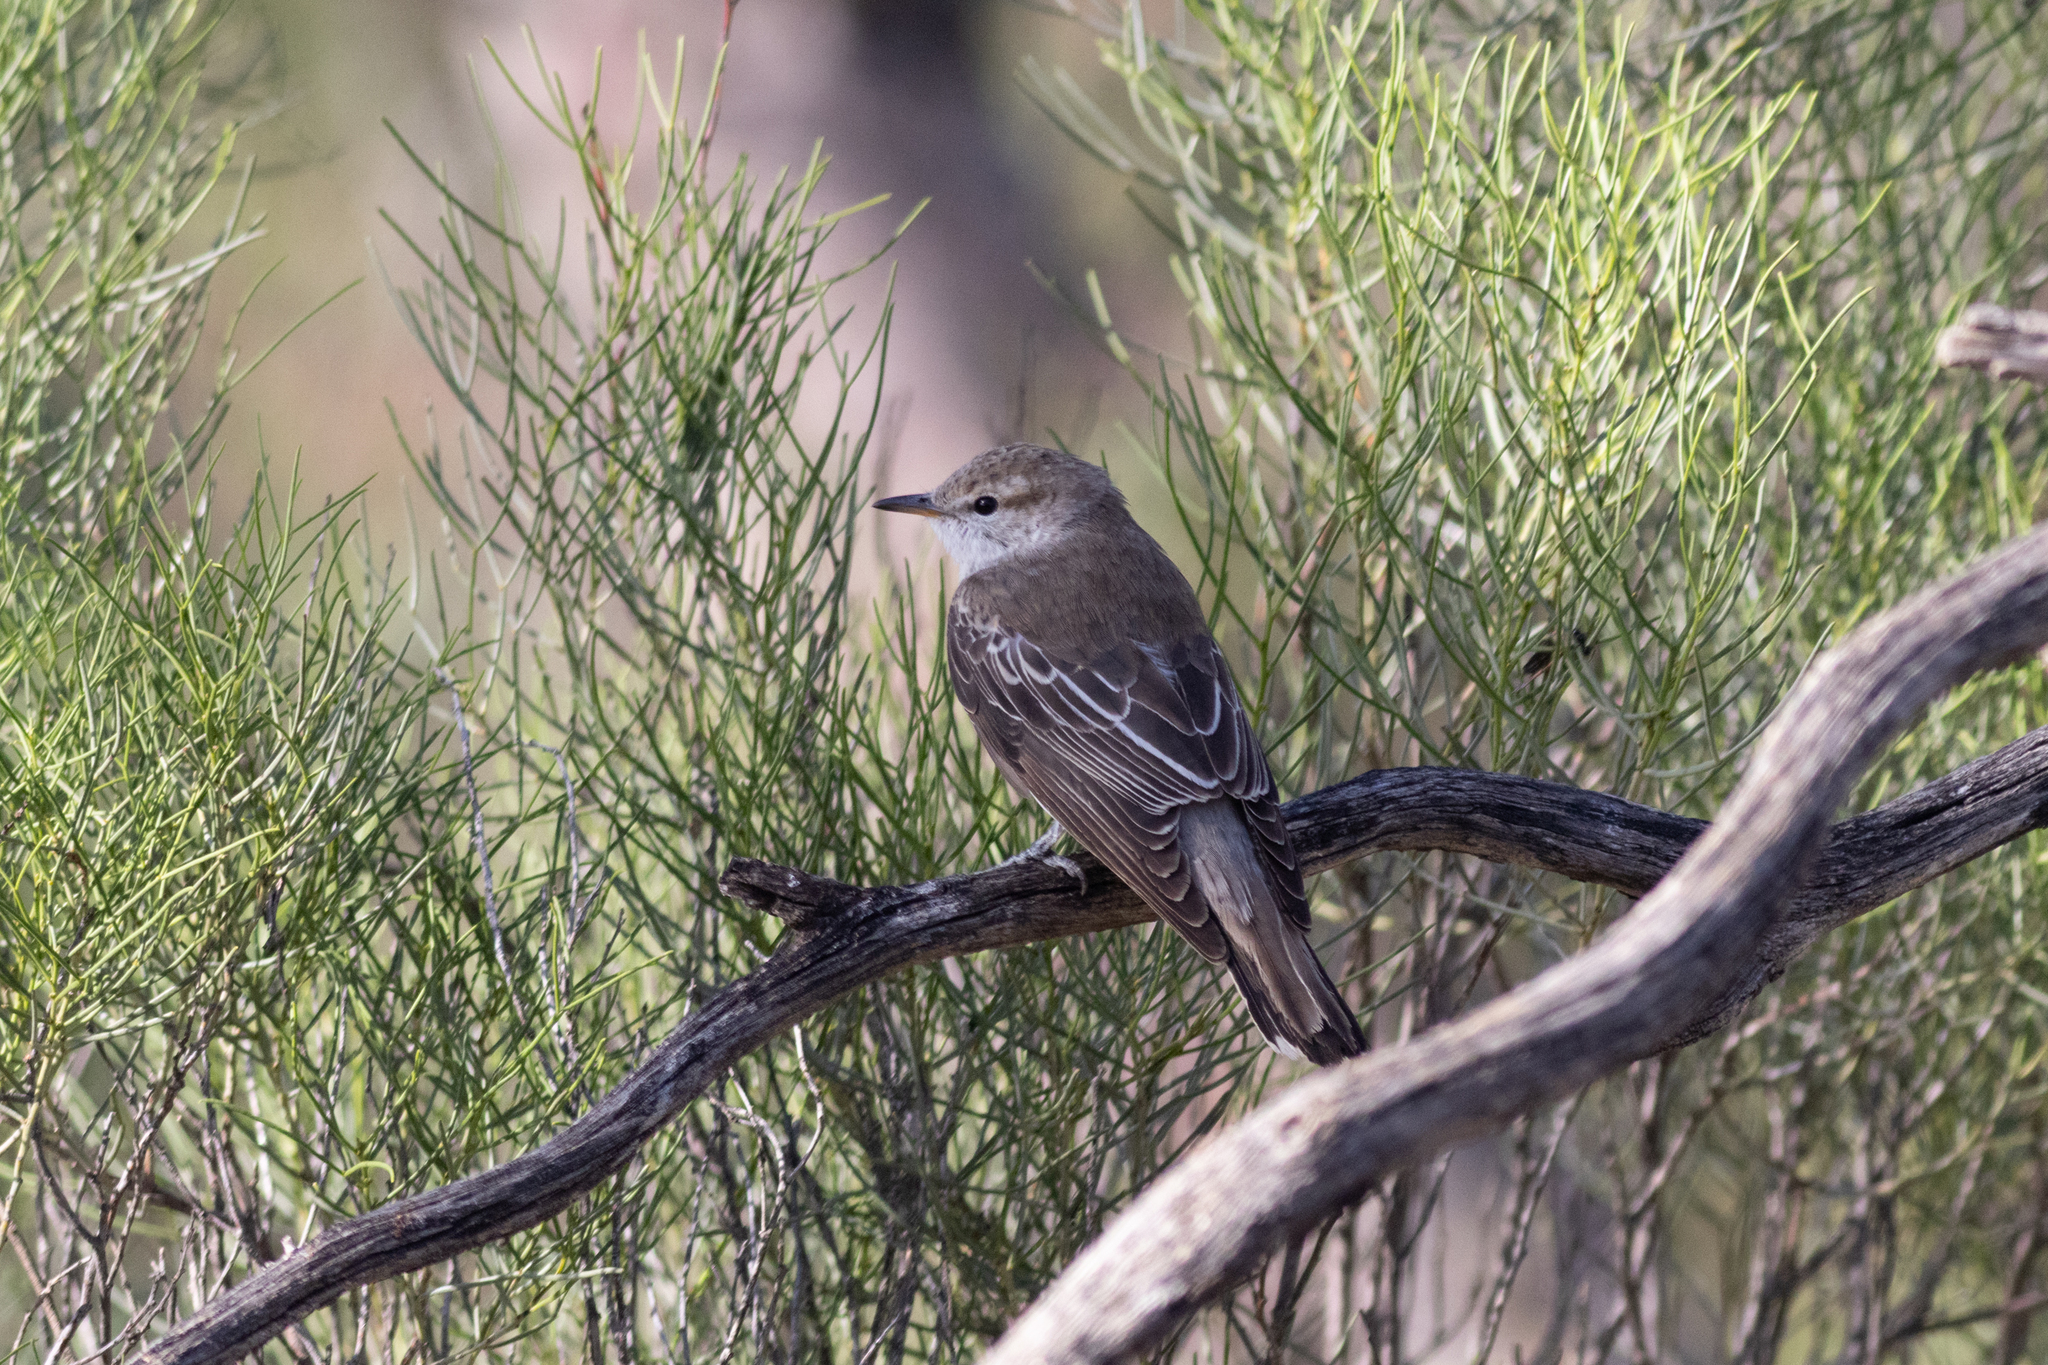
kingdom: Animalia
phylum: Chordata
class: Aves
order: Passeriformes
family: Campephagidae
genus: Lalage
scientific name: Lalage tricolor
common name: White-winged triller
